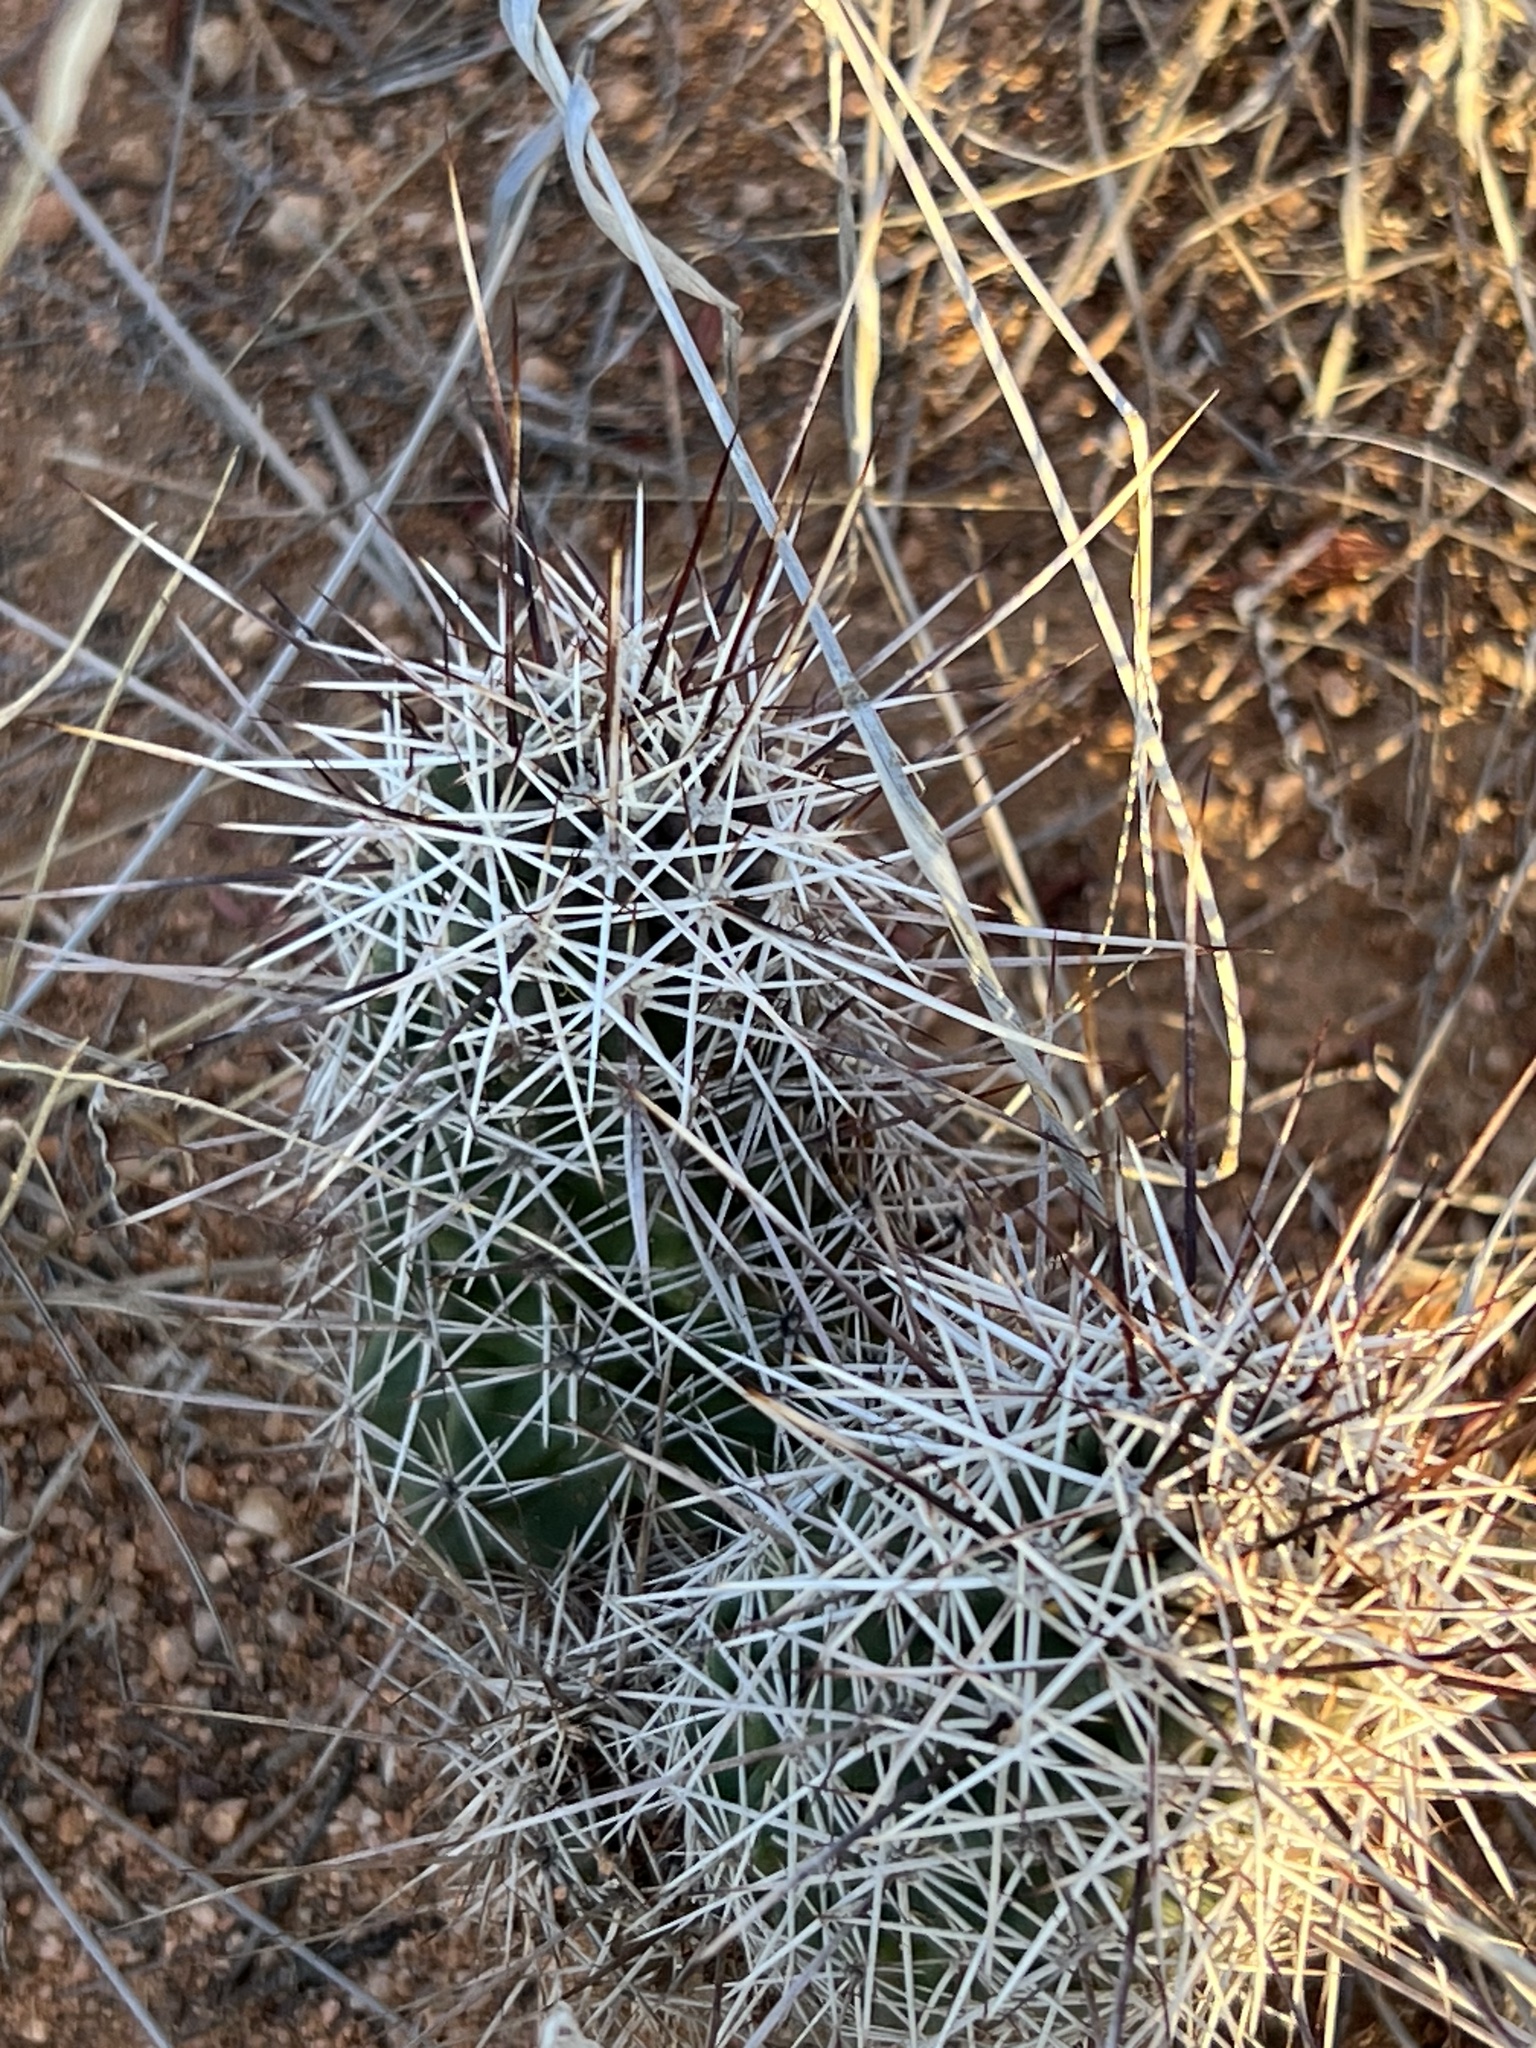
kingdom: Plantae
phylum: Tracheophyta
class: Magnoliopsida
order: Caryophyllales
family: Cactaceae
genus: Echinocereus
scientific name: Echinocereus fasciculatus
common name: Bundle hedgehog
